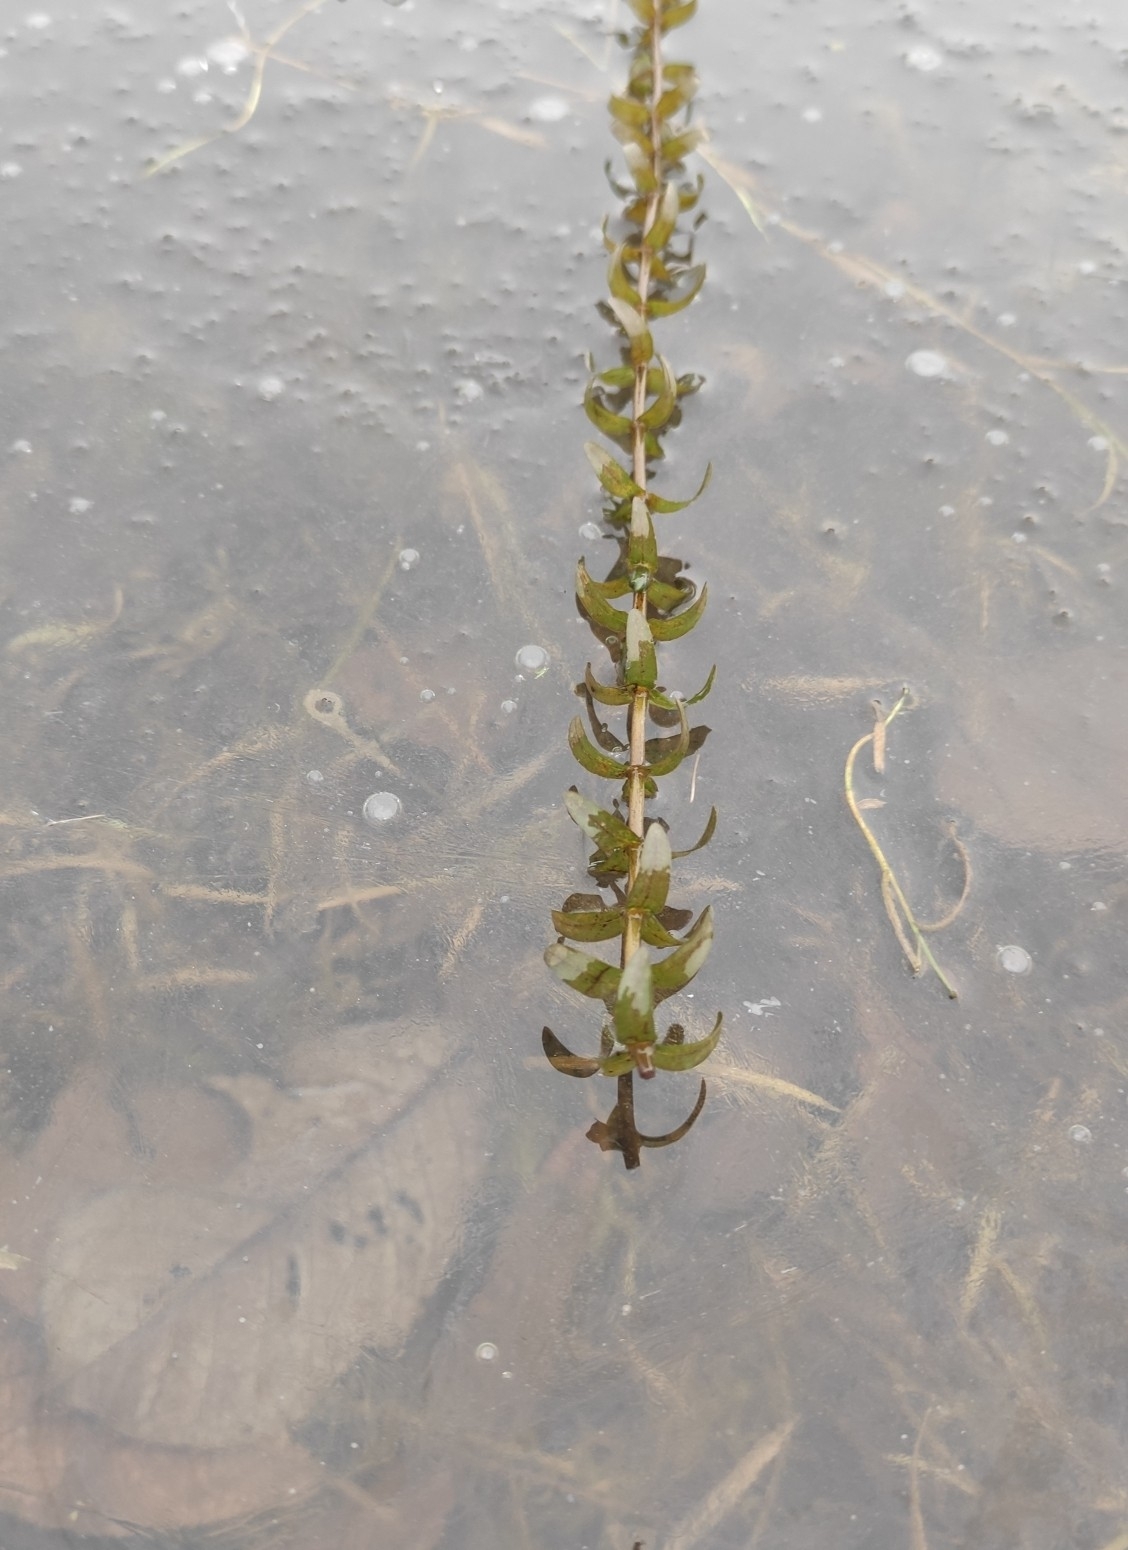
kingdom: Plantae
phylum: Tracheophyta
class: Liliopsida
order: Alismatales
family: Hydrocharitaceae
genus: Elodea
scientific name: Elodea canadensis
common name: Canadian waterweed
